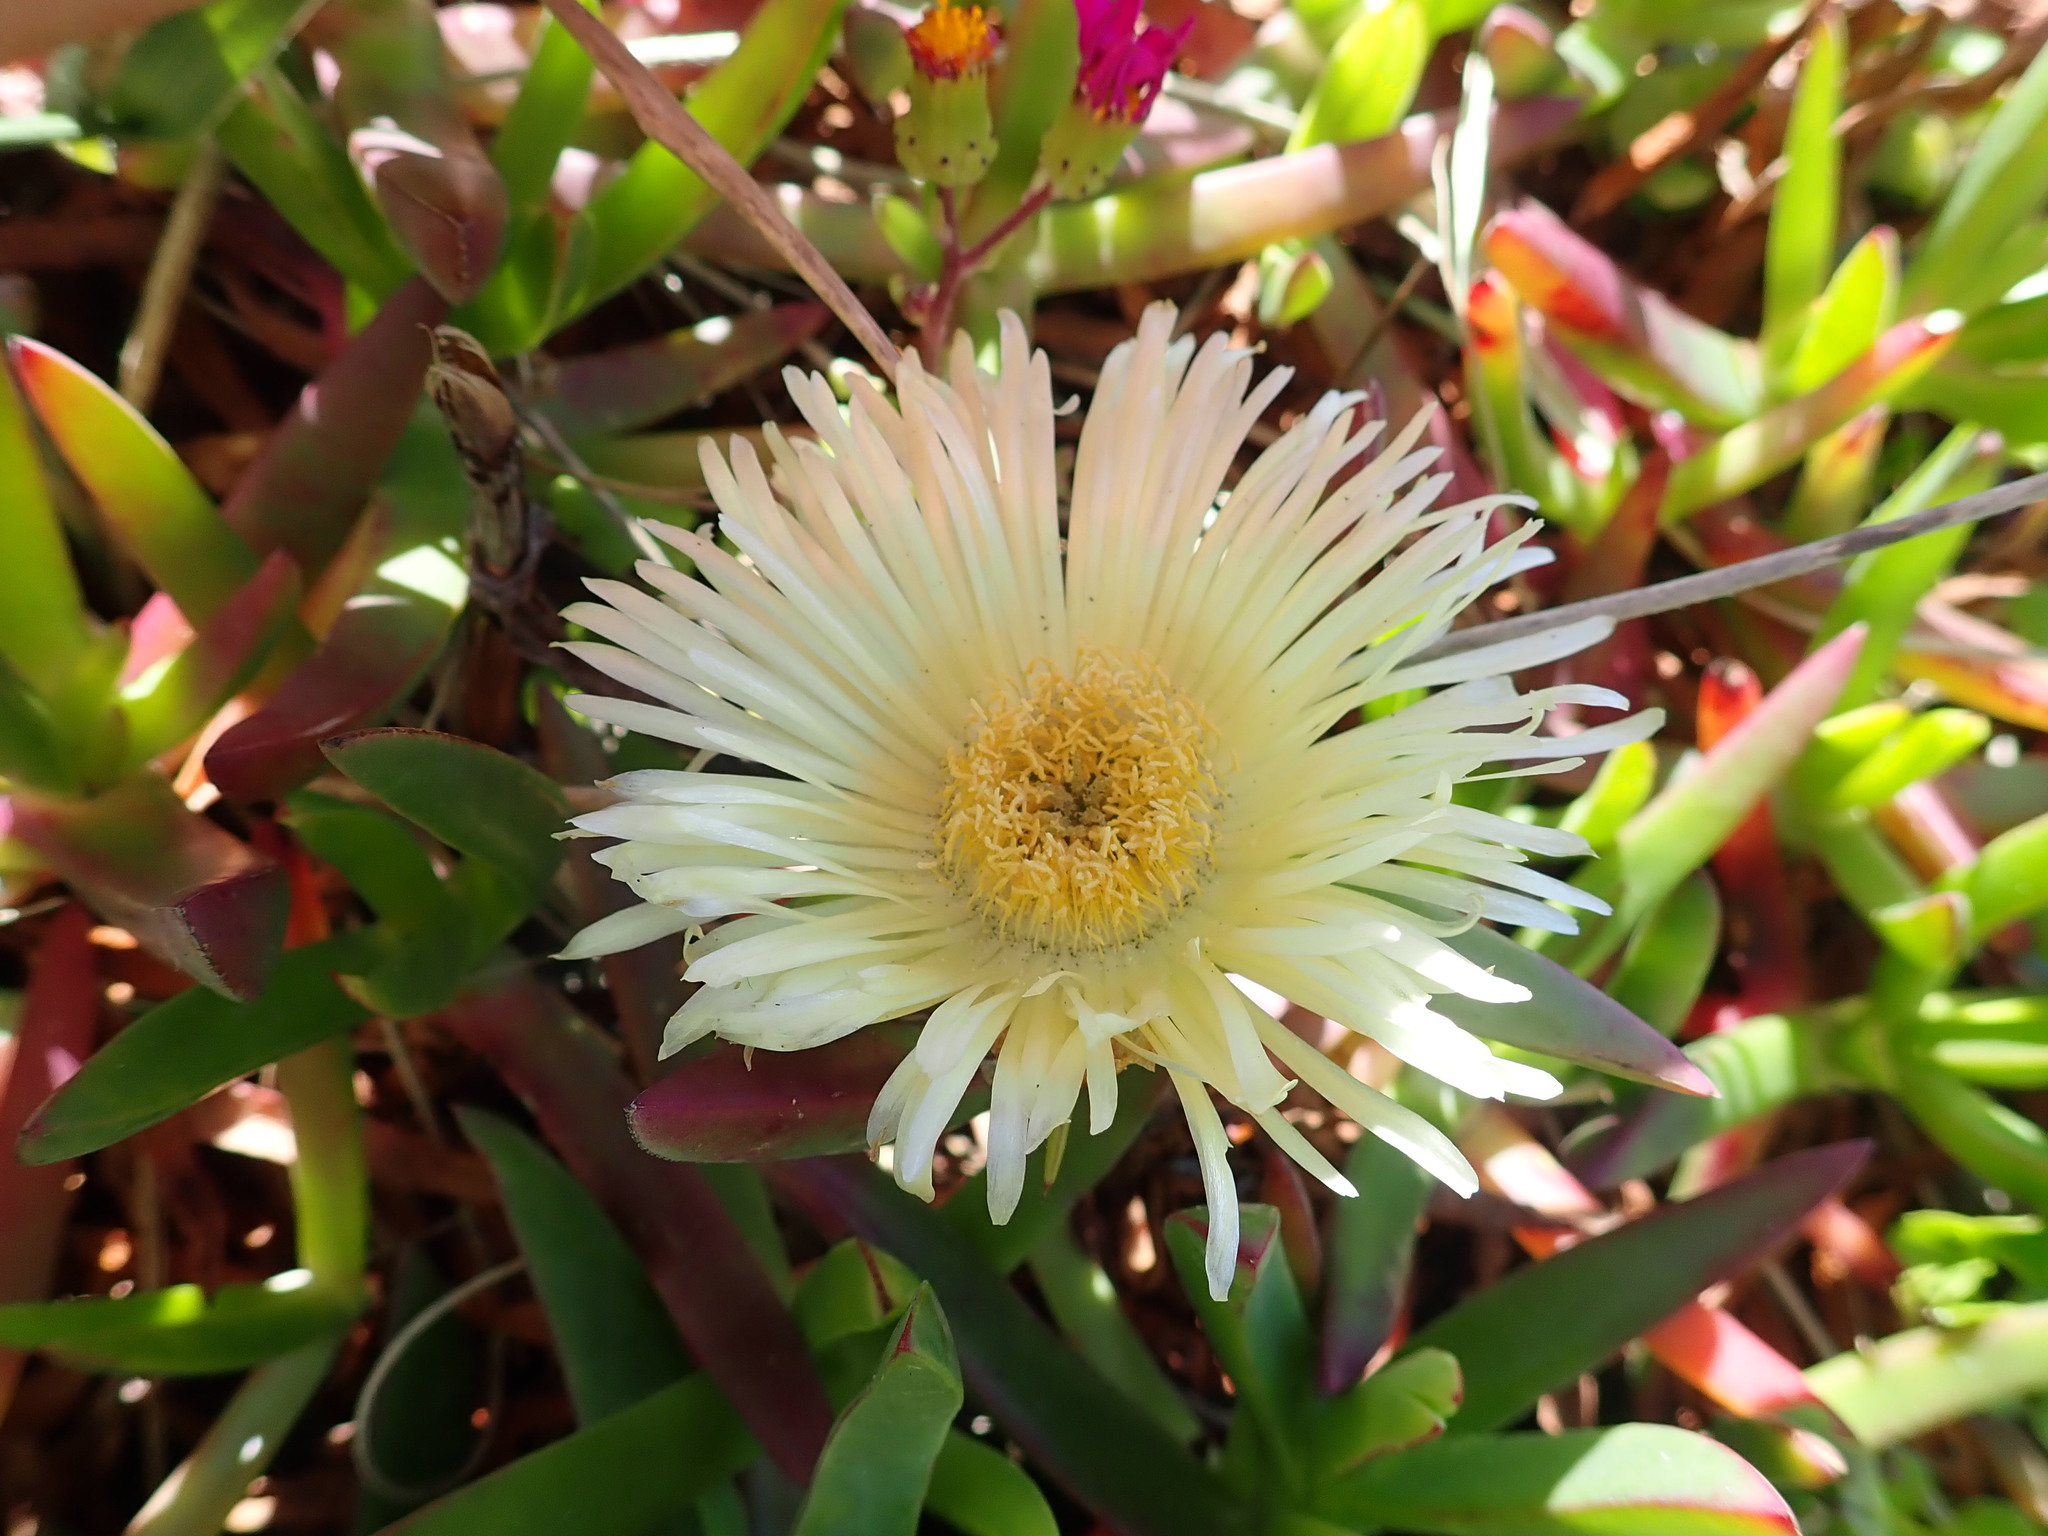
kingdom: Plantae
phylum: Tracheophyta
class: Magnoliopsida
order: Caryophyllales
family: Aizoaceae
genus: Carpobrotus
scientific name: Carpobrotus edulis
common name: Hottentot-fig
